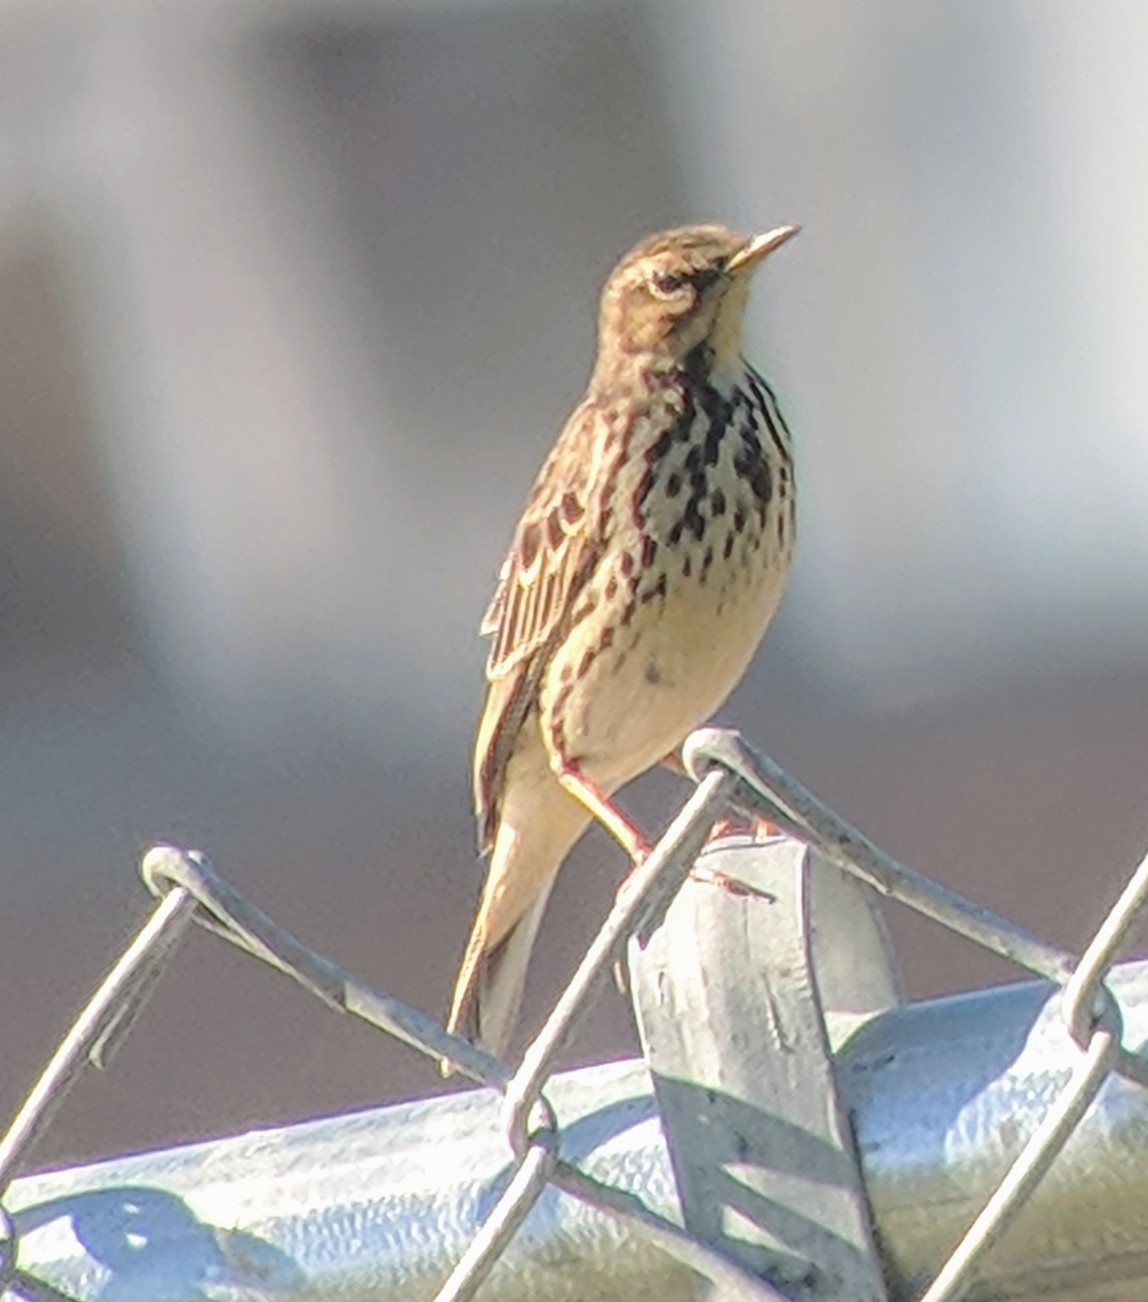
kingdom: Animalia
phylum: Chordata
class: Aves
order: Passeriformes
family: Motacillidae
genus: Anthus
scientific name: Anthus cervinus
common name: Red-throated pipit
